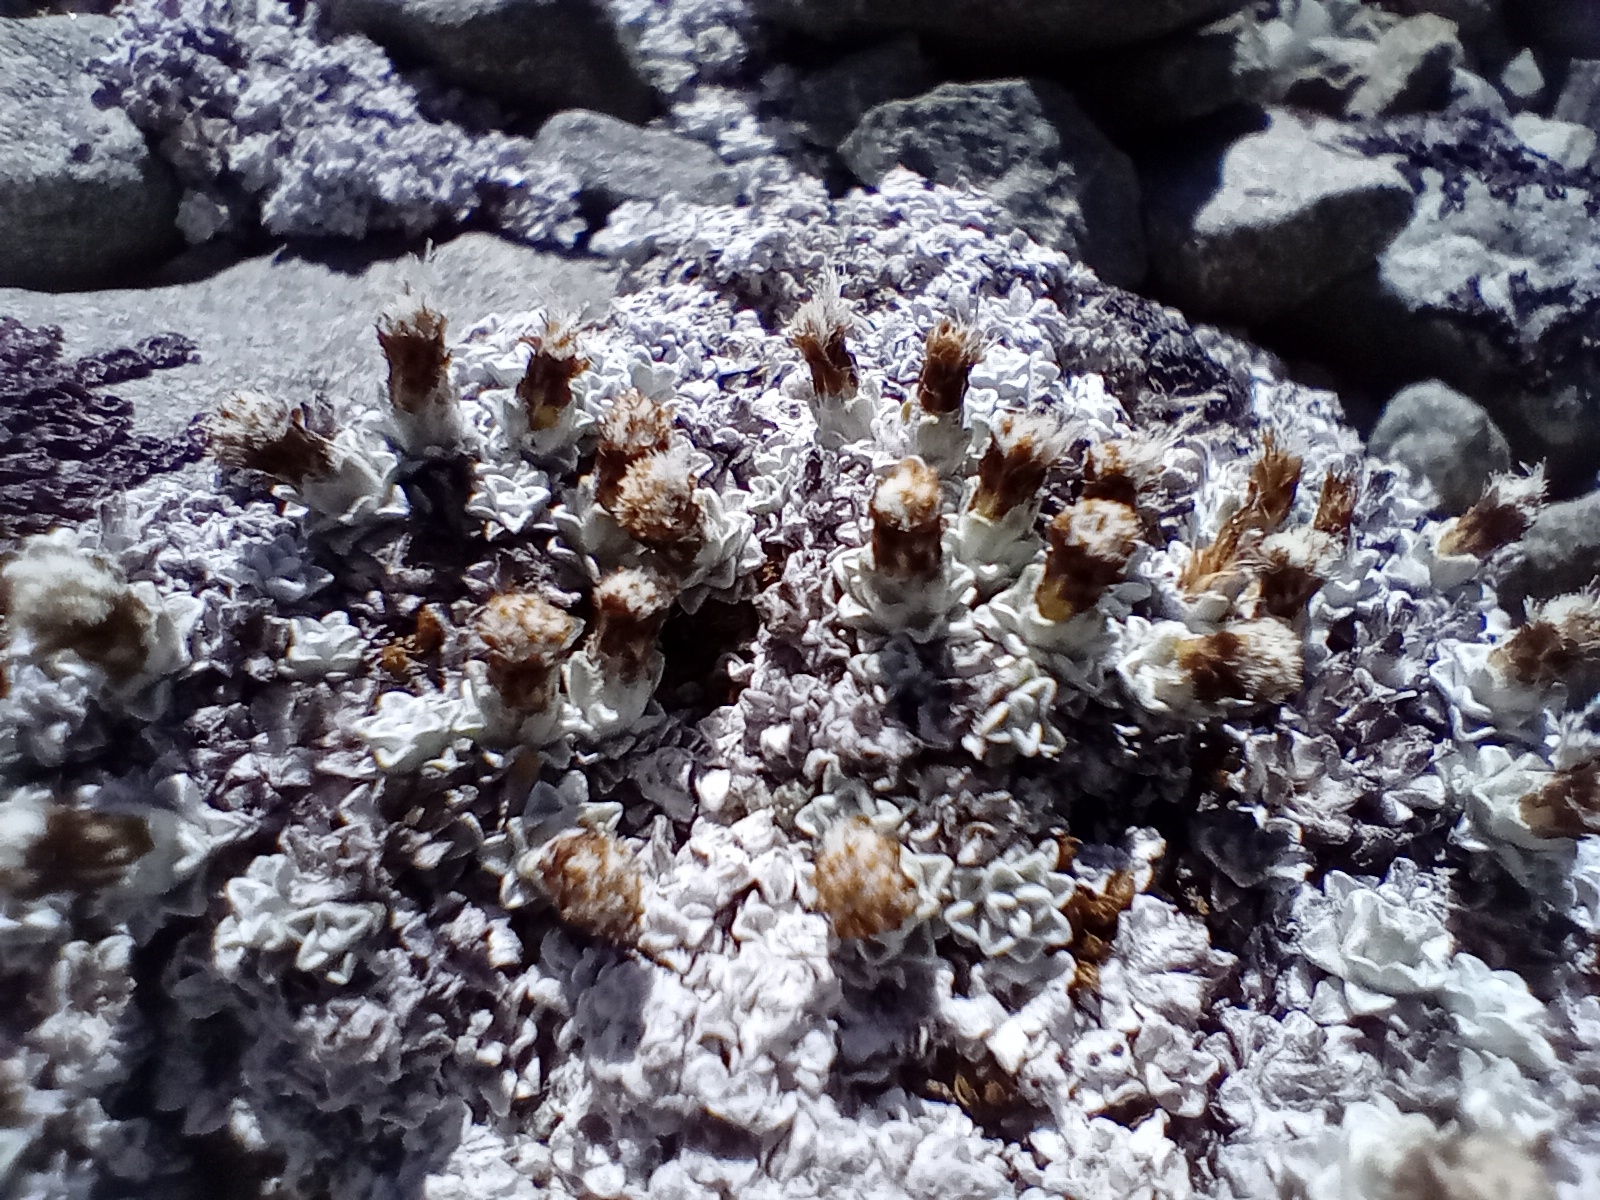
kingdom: Plantae
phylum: Tracheophyta
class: Magnoliopsida
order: Asterales
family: Asteraceae
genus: Raoulia
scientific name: Raoulia apicinigra
